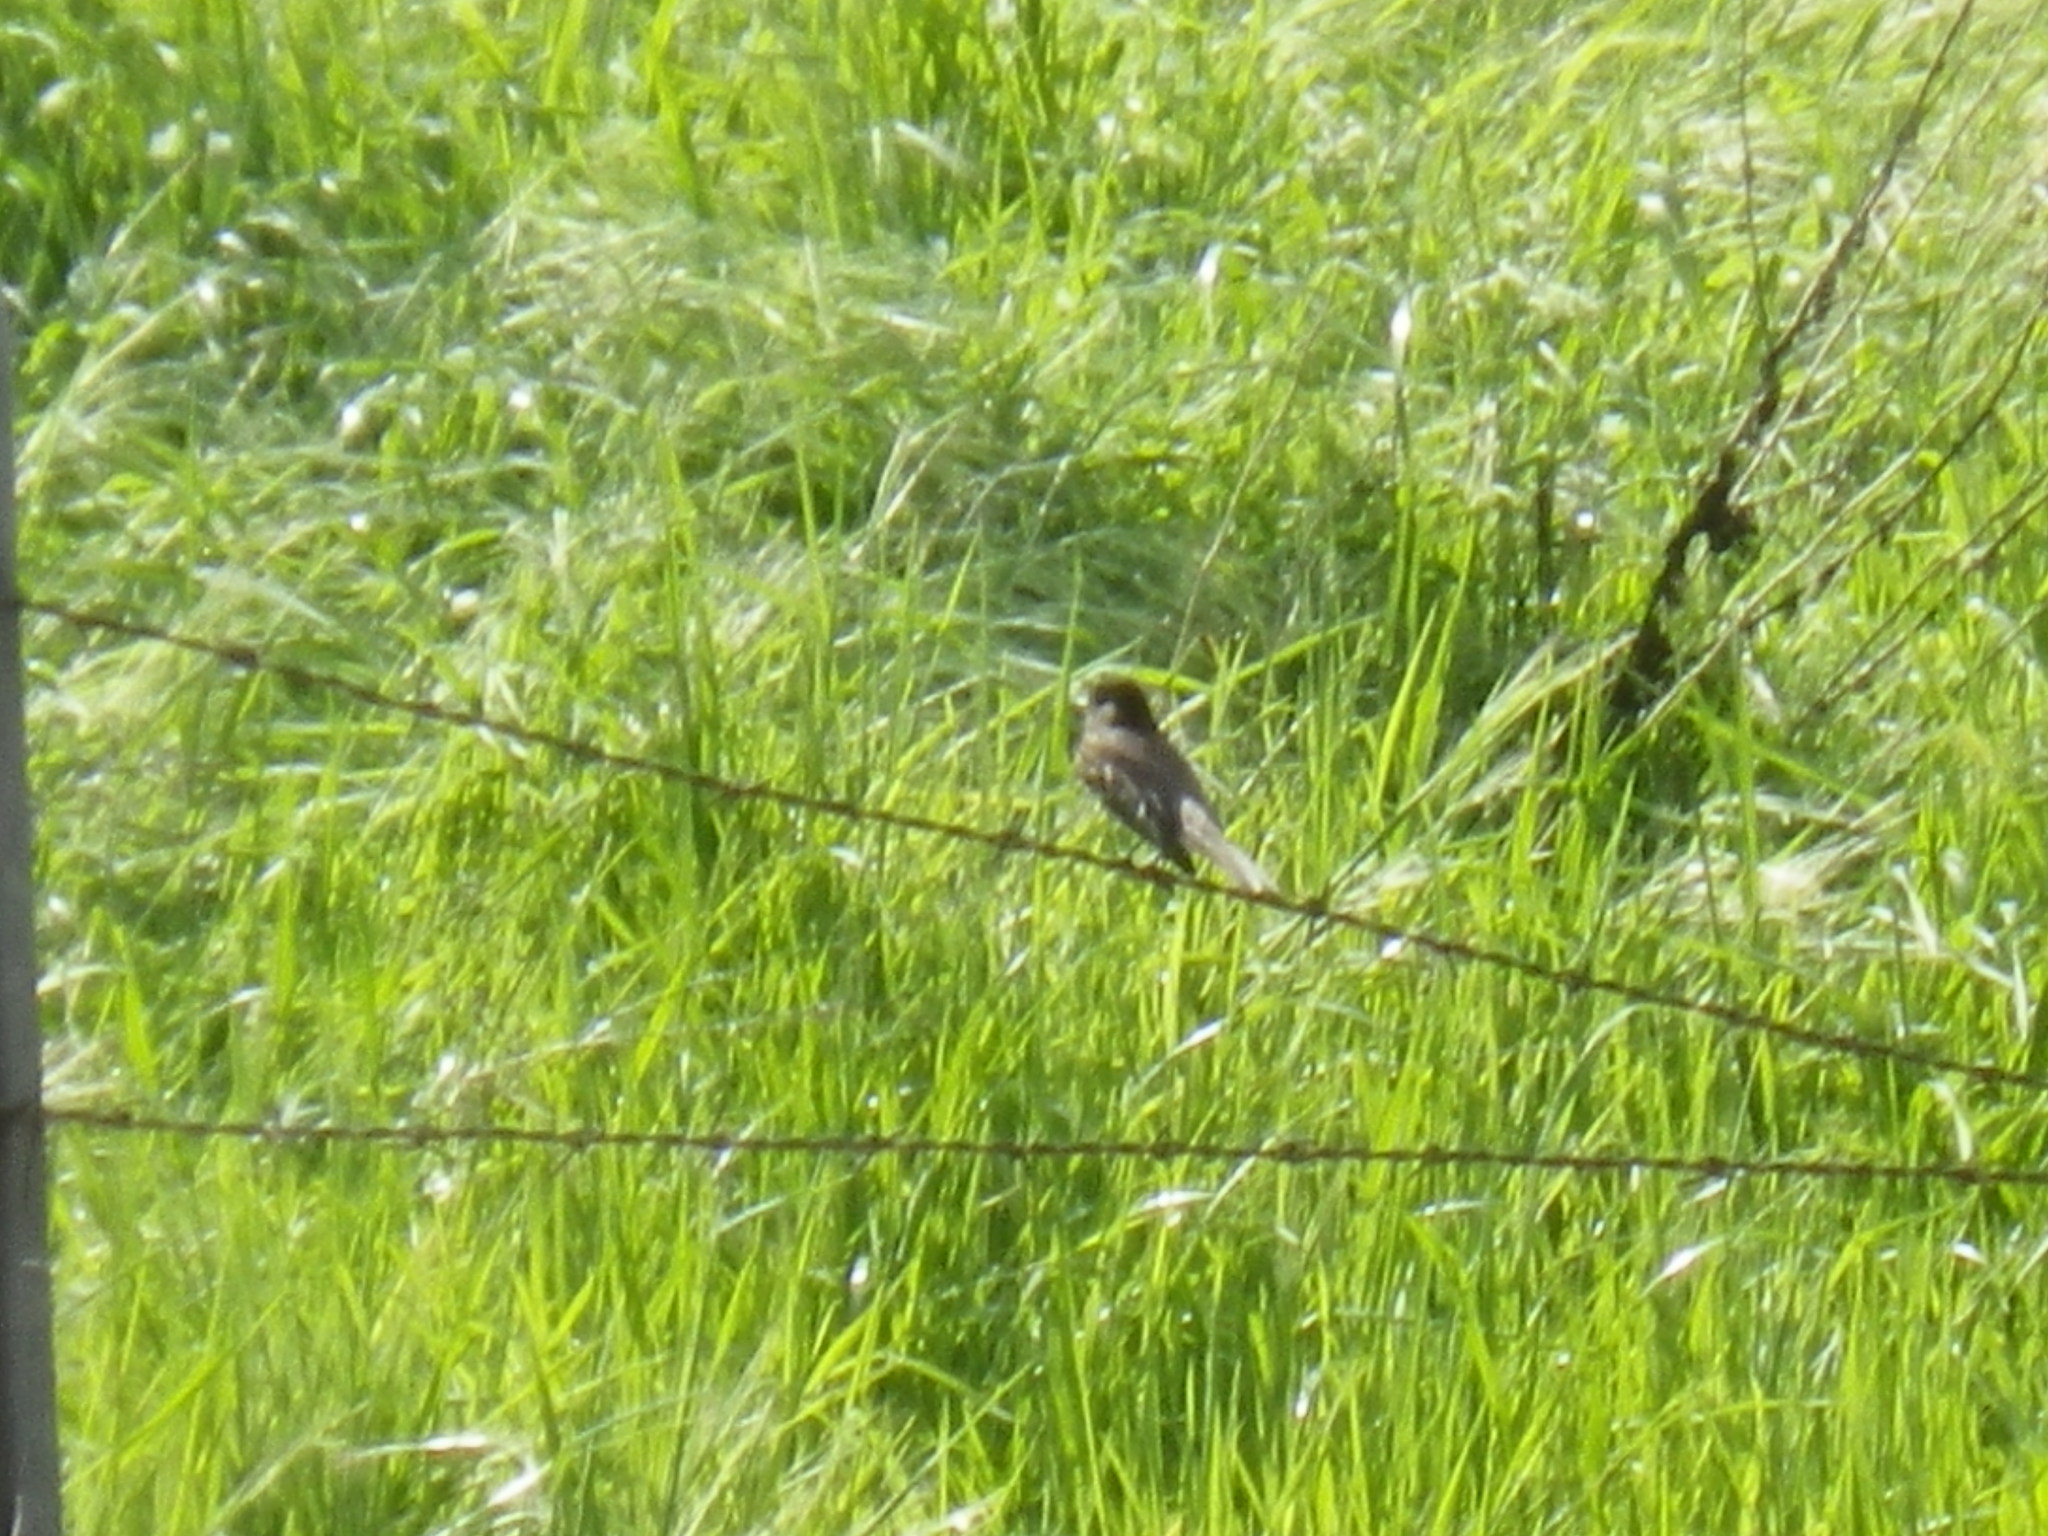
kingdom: Animalia
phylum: Chordata
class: Aves
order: Passeriformes
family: Tyrannidae
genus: Sayornis
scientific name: Sayornis nigricans
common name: Black phoebe
